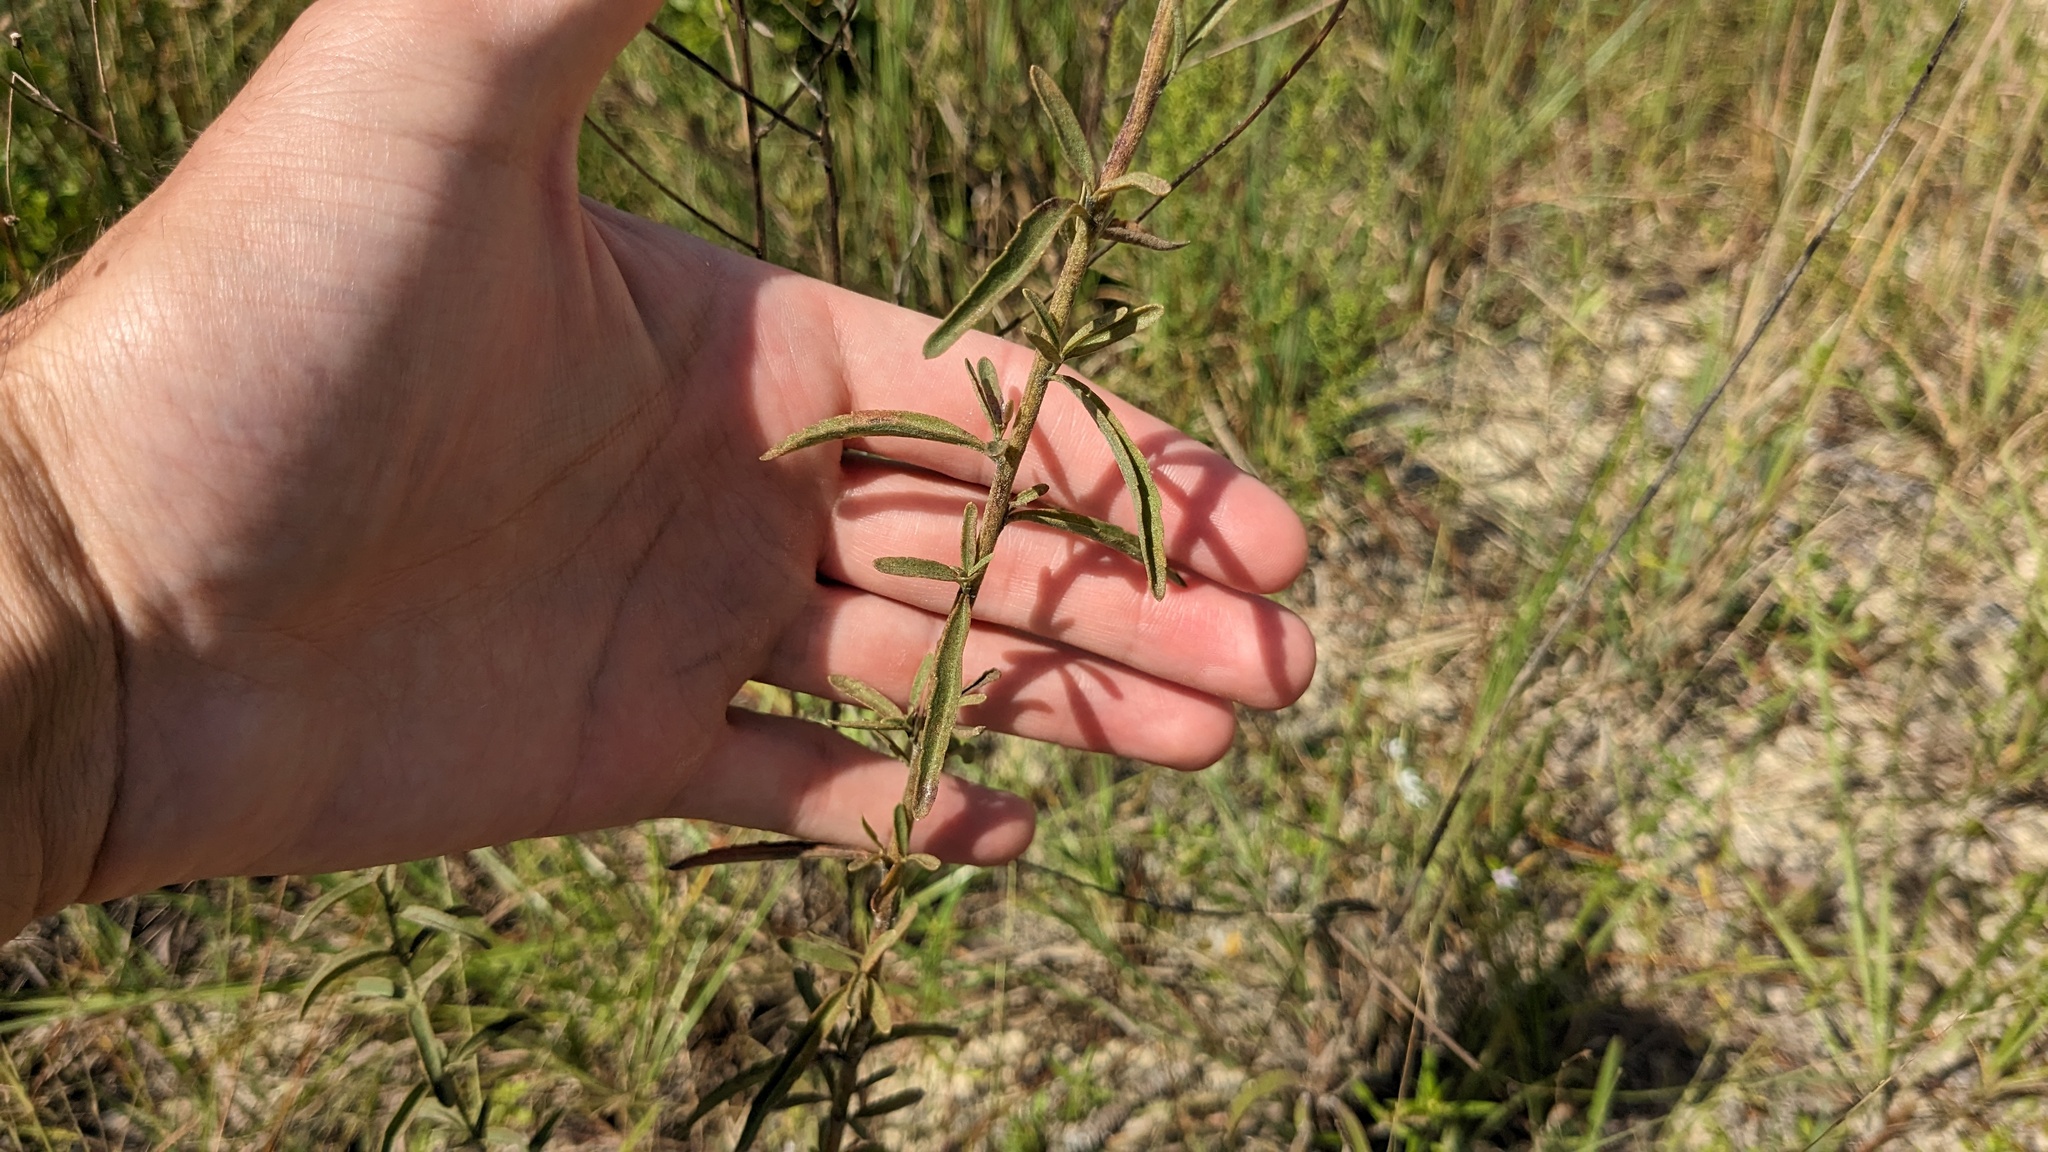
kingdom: Plantae
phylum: Tracheophyta
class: Magnoliopsida
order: Asterales
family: Asteraceae
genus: Eupatorium
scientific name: Eupatorium mohrii
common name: Mohr's thoroughwort
